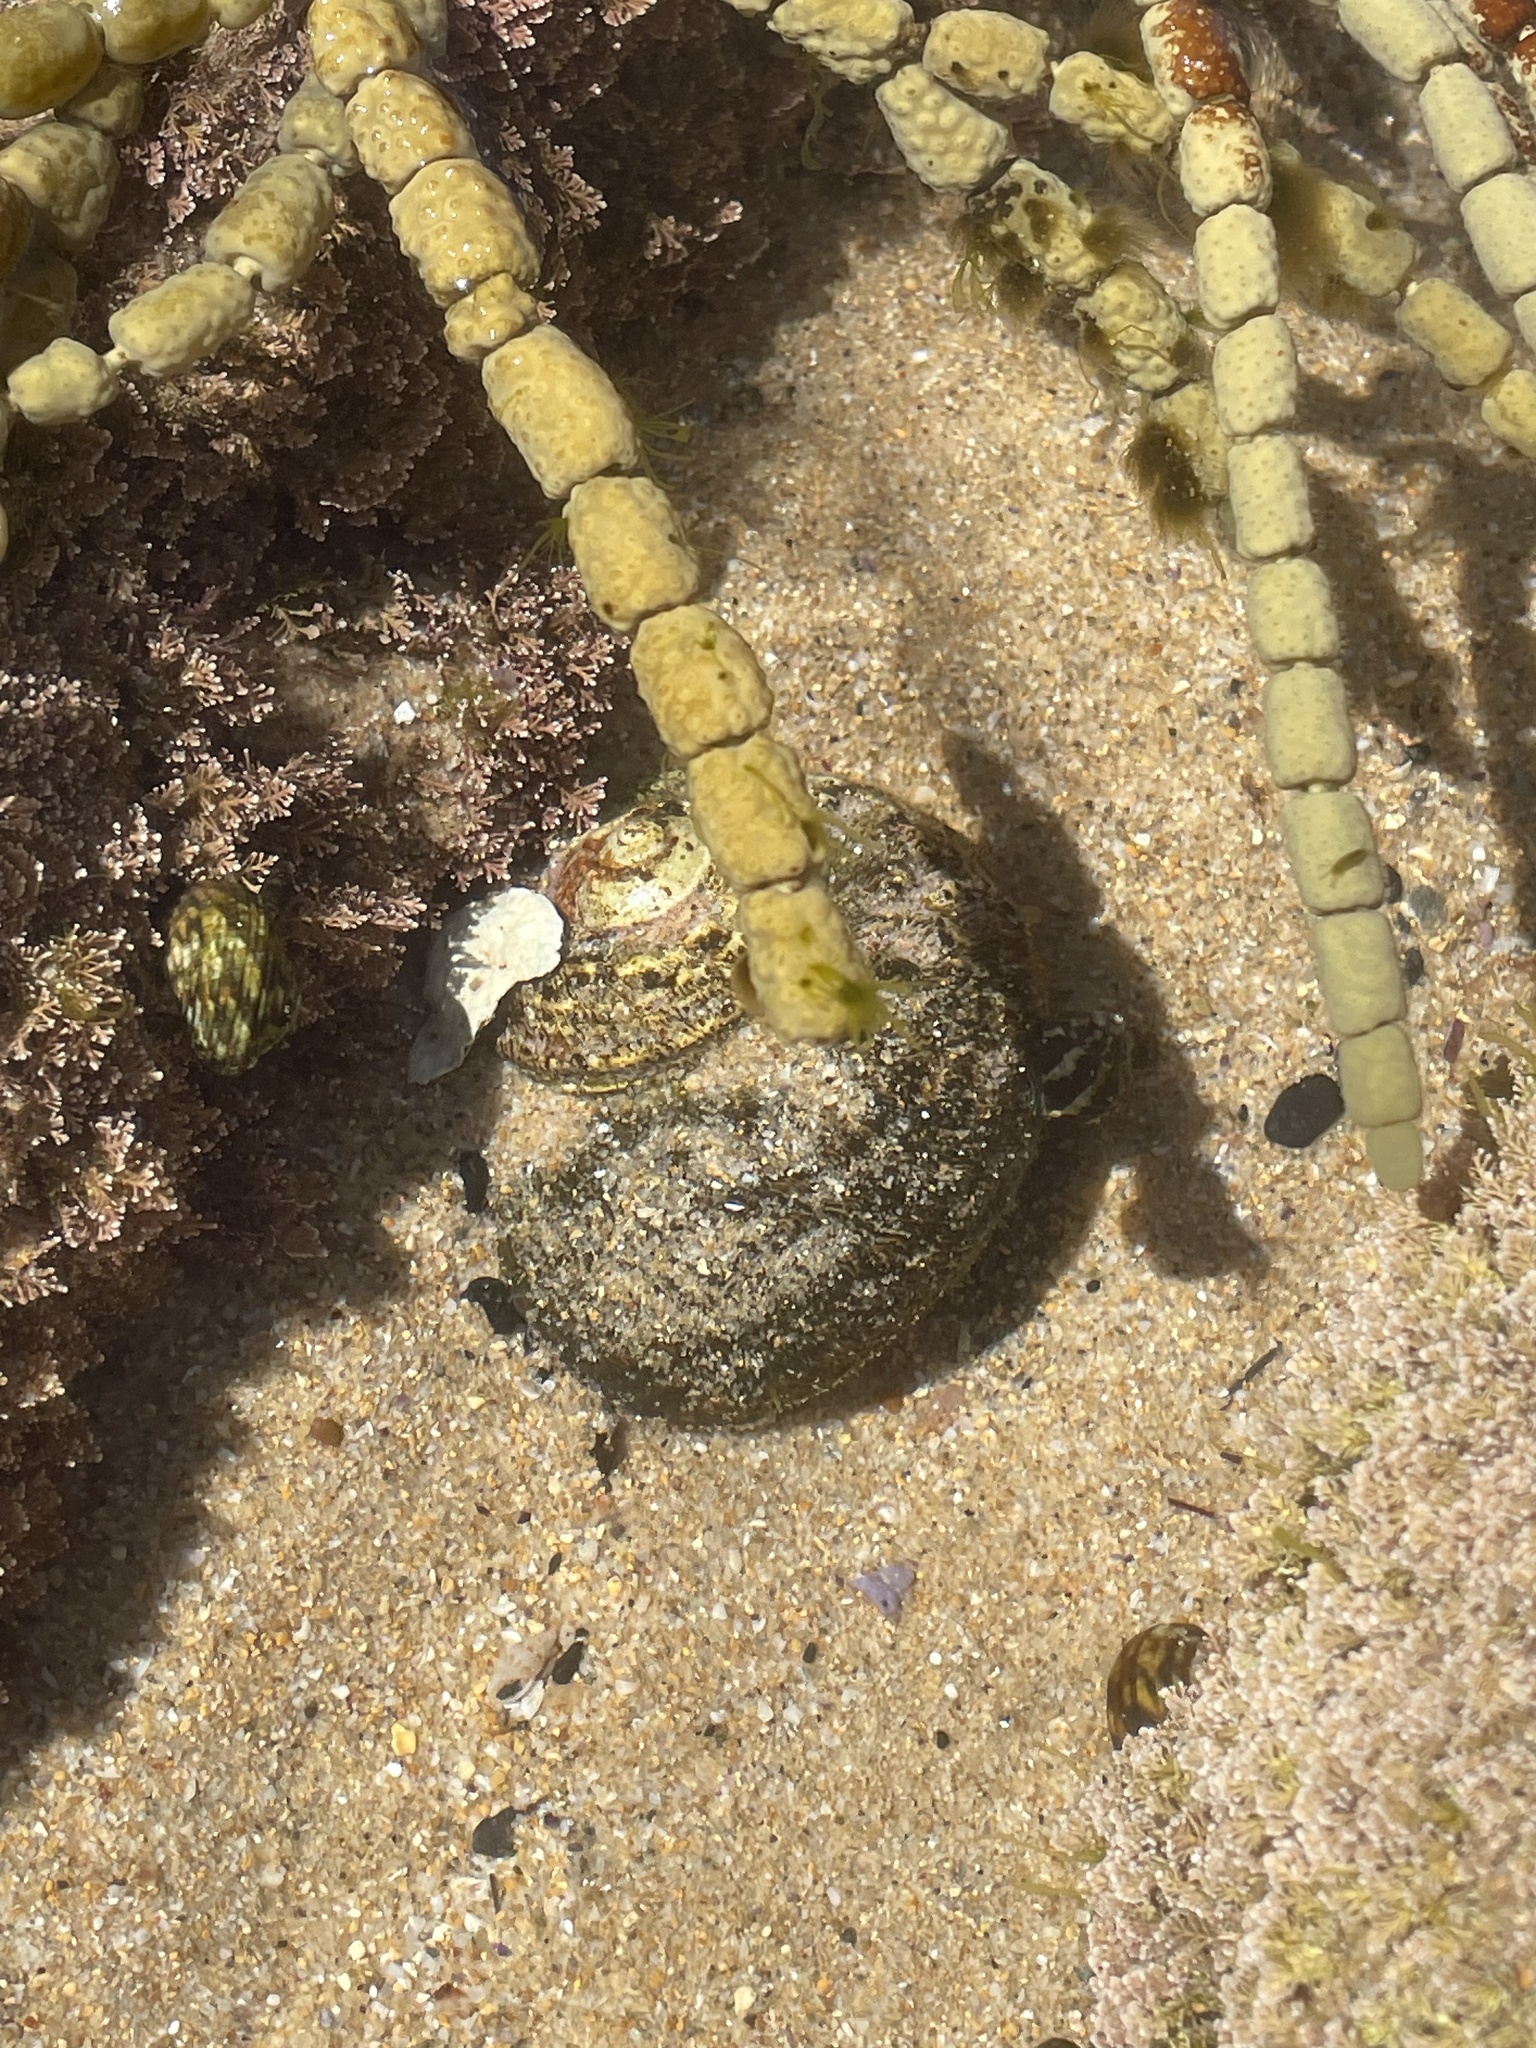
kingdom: Animalia
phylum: Mollusca
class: Gastropoda
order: Trochida
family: Turbinidae
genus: Lunella
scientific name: Lunella torquata
